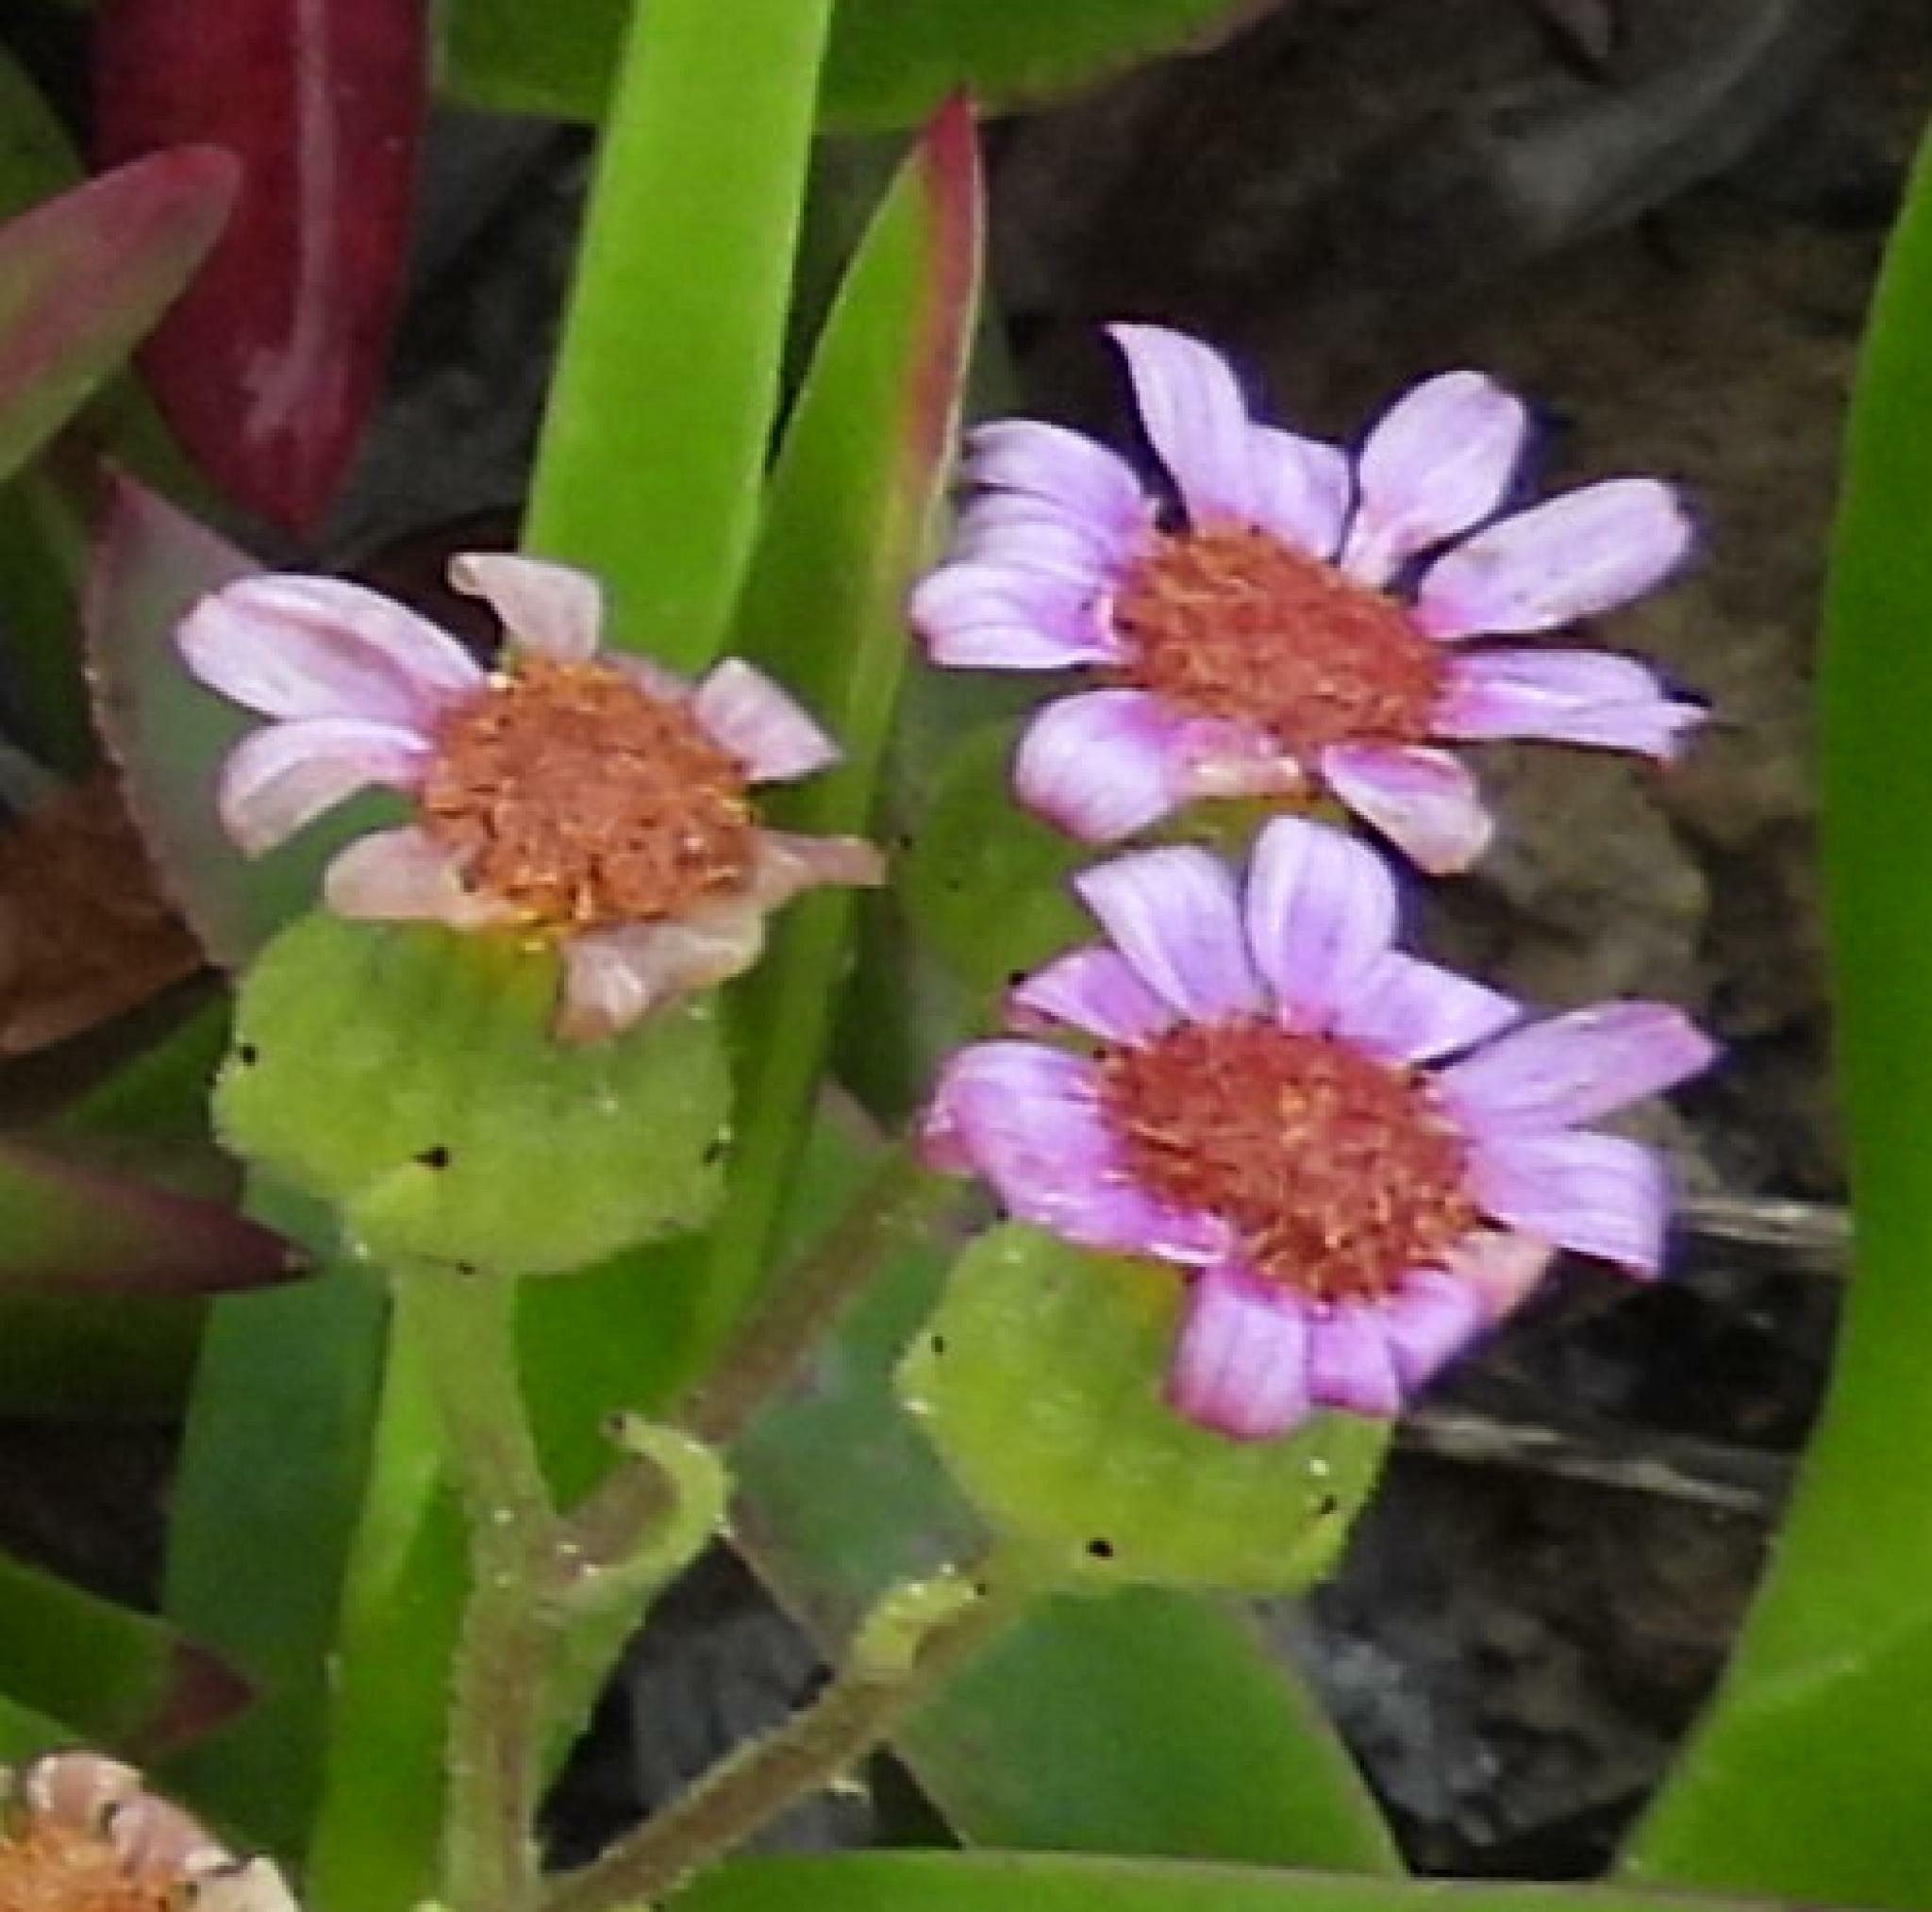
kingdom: Plantae
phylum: Tracheophyta
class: Magnoliopsida
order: Asterales
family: Asteraceae
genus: Senecio
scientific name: Senecio elegans
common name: Purple groundsel
